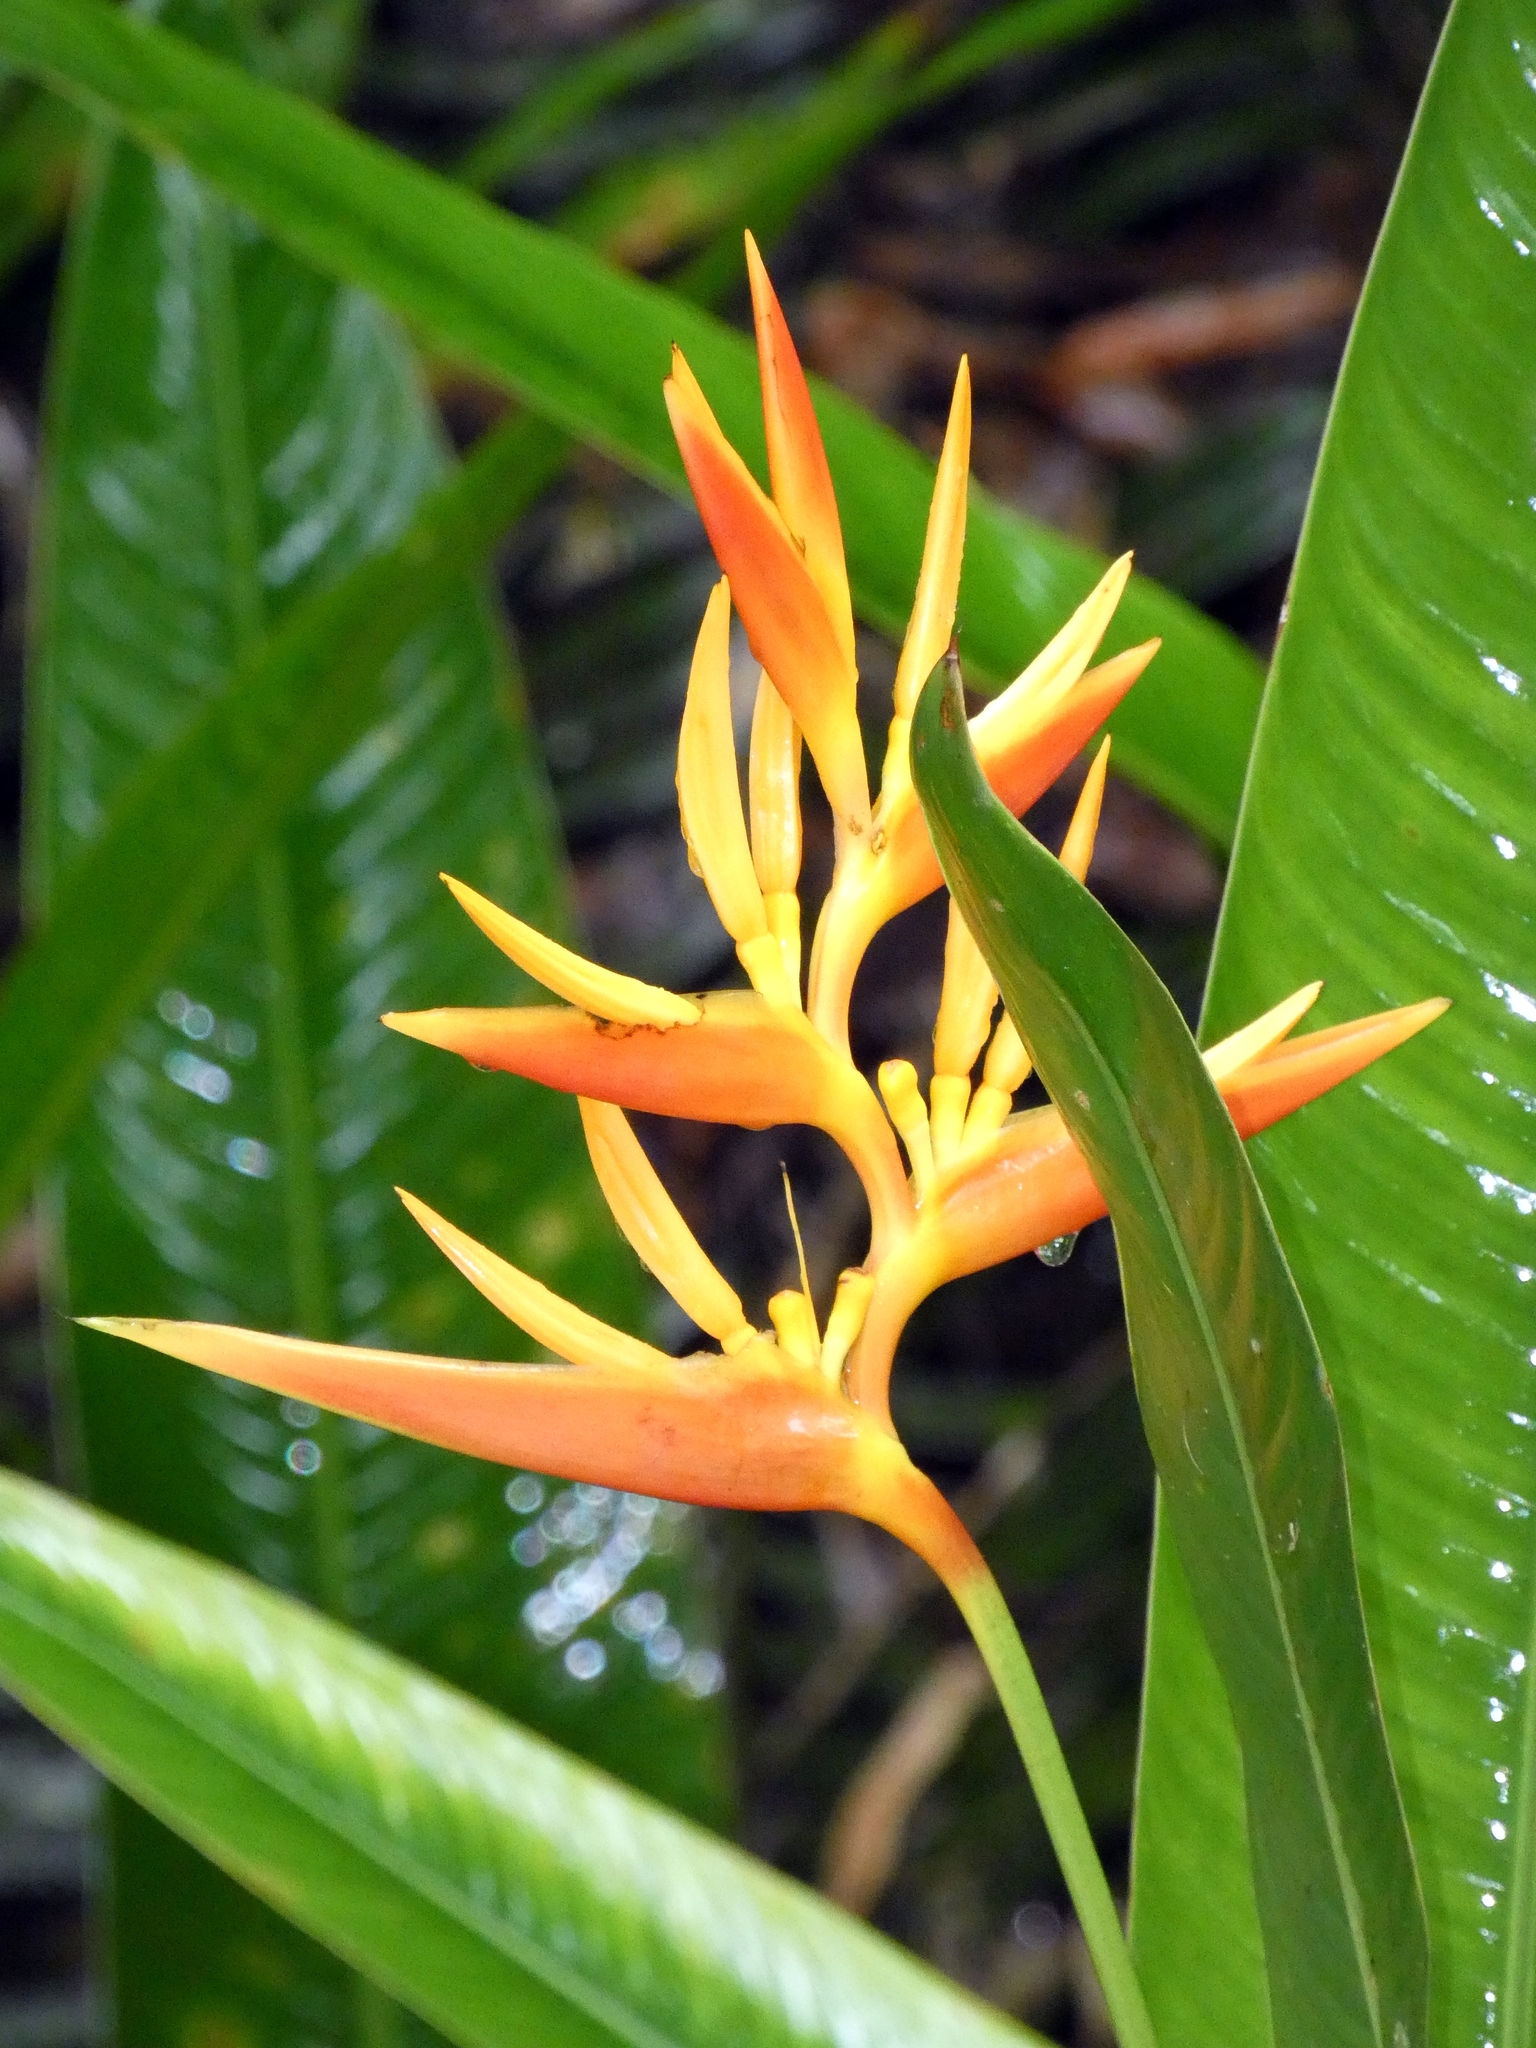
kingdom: Plantae
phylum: Tracheophyta
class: Liliopsida
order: Zingiberales
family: Heliconiaceae
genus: Heliconia
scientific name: Heliconia psittacorum
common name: Parrot's-flower
